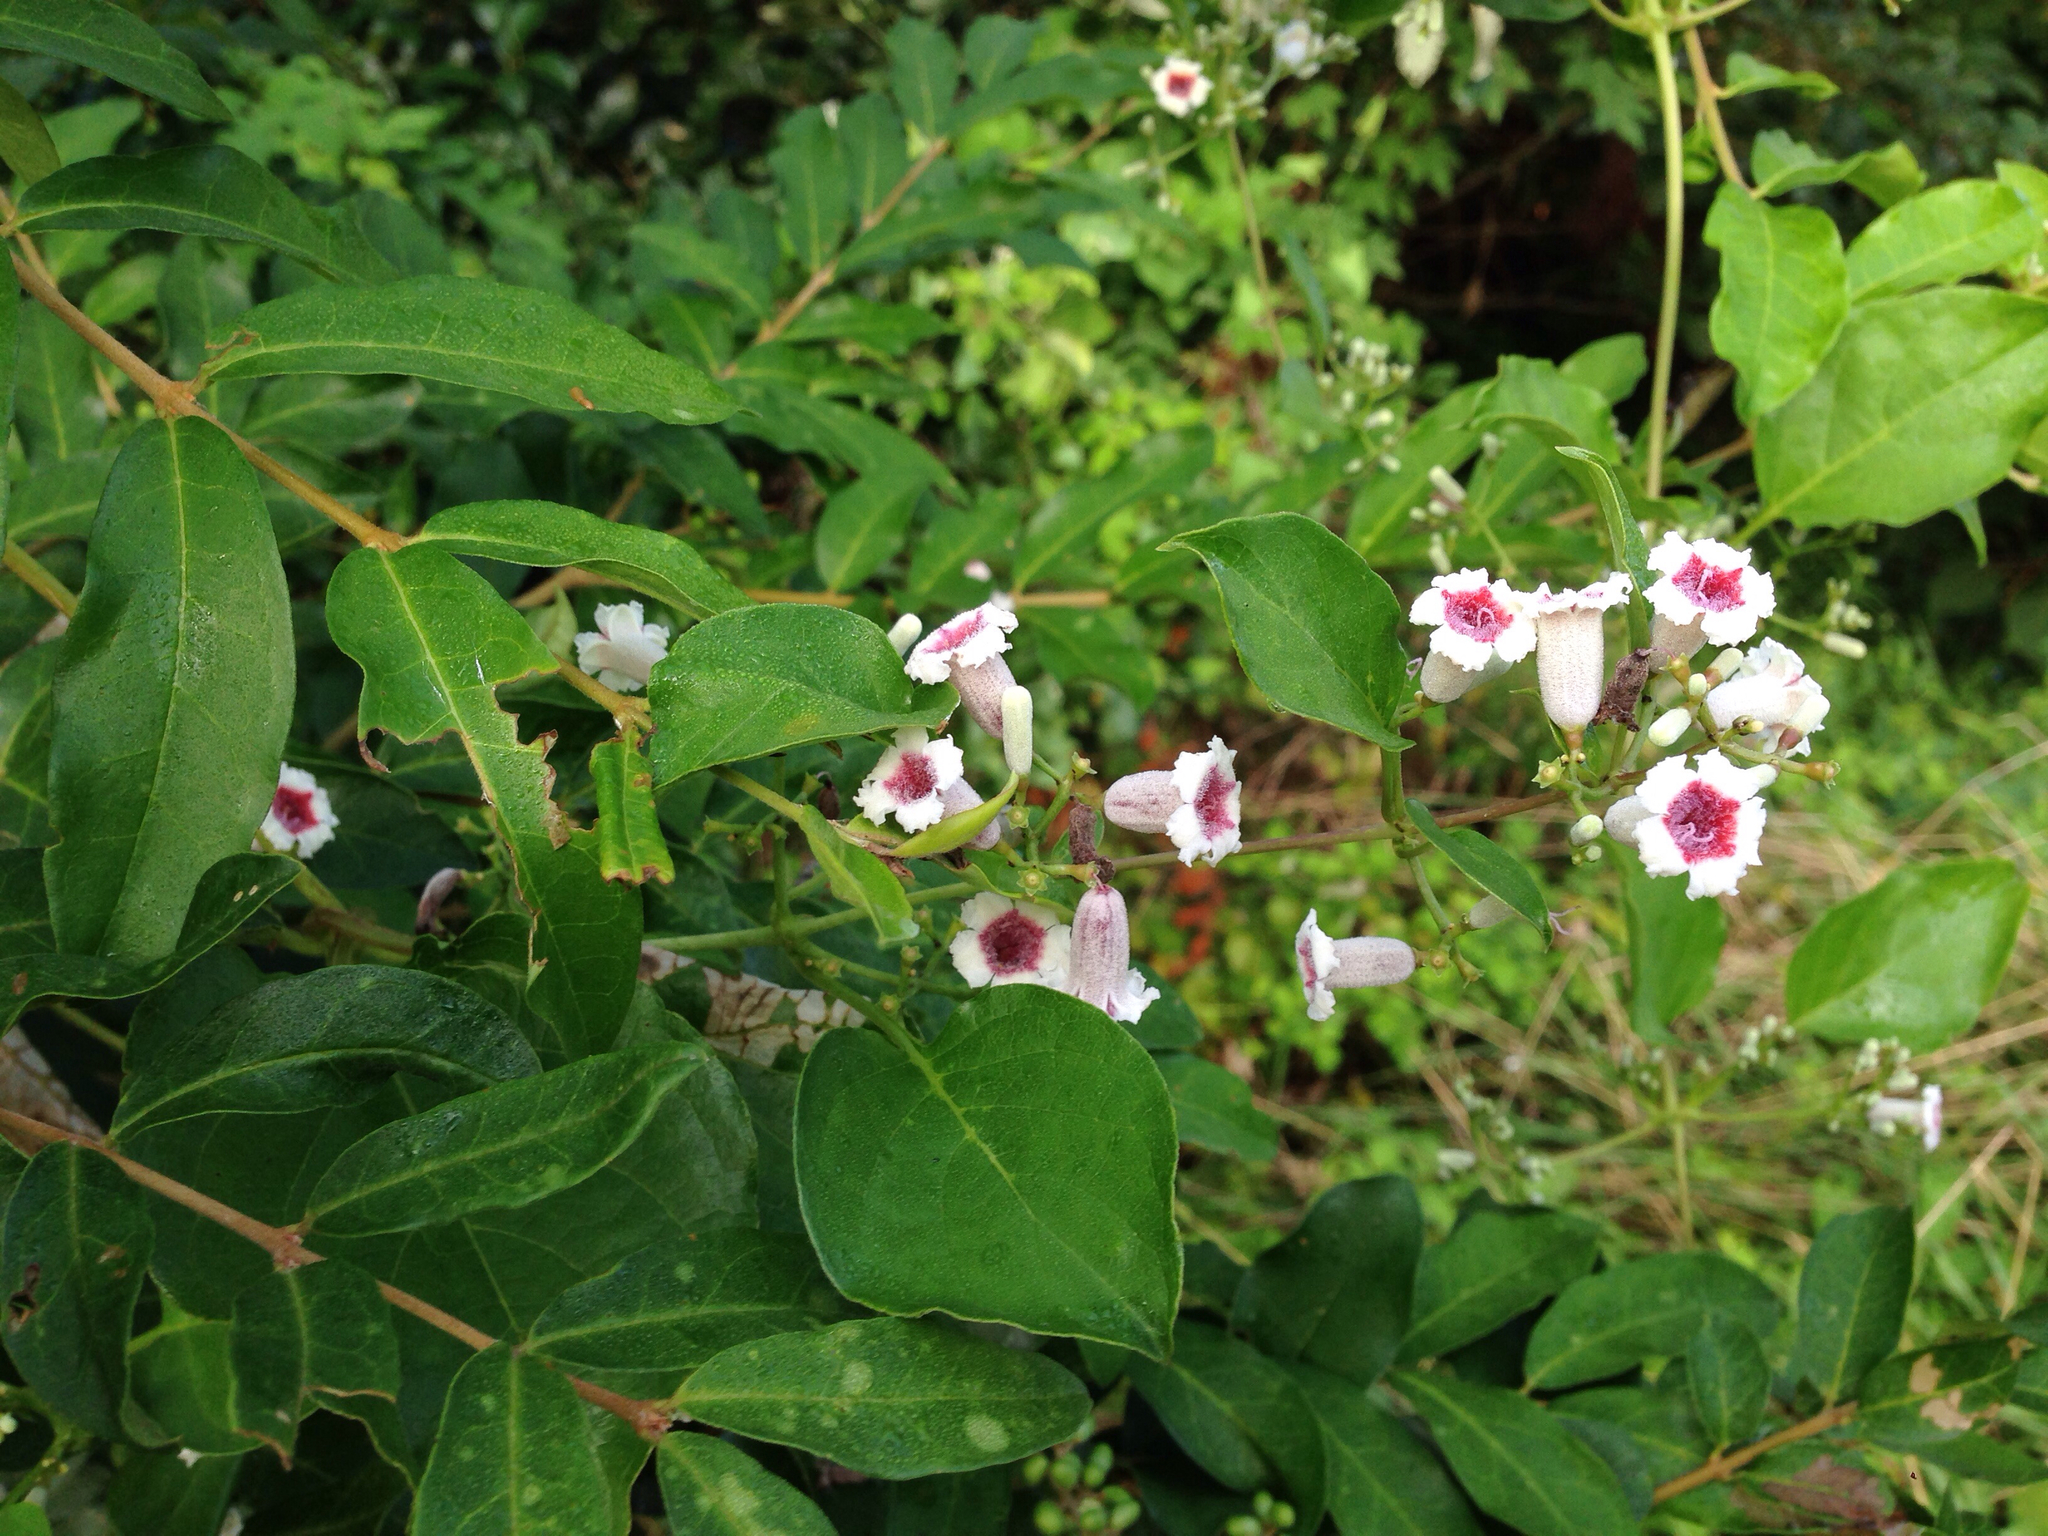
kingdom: Plantae
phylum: Tracheophyta
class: Magnoliopsida
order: Gentianales
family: Rubiaceae
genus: Paederia
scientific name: Paederia foetida
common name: Stinkvine
